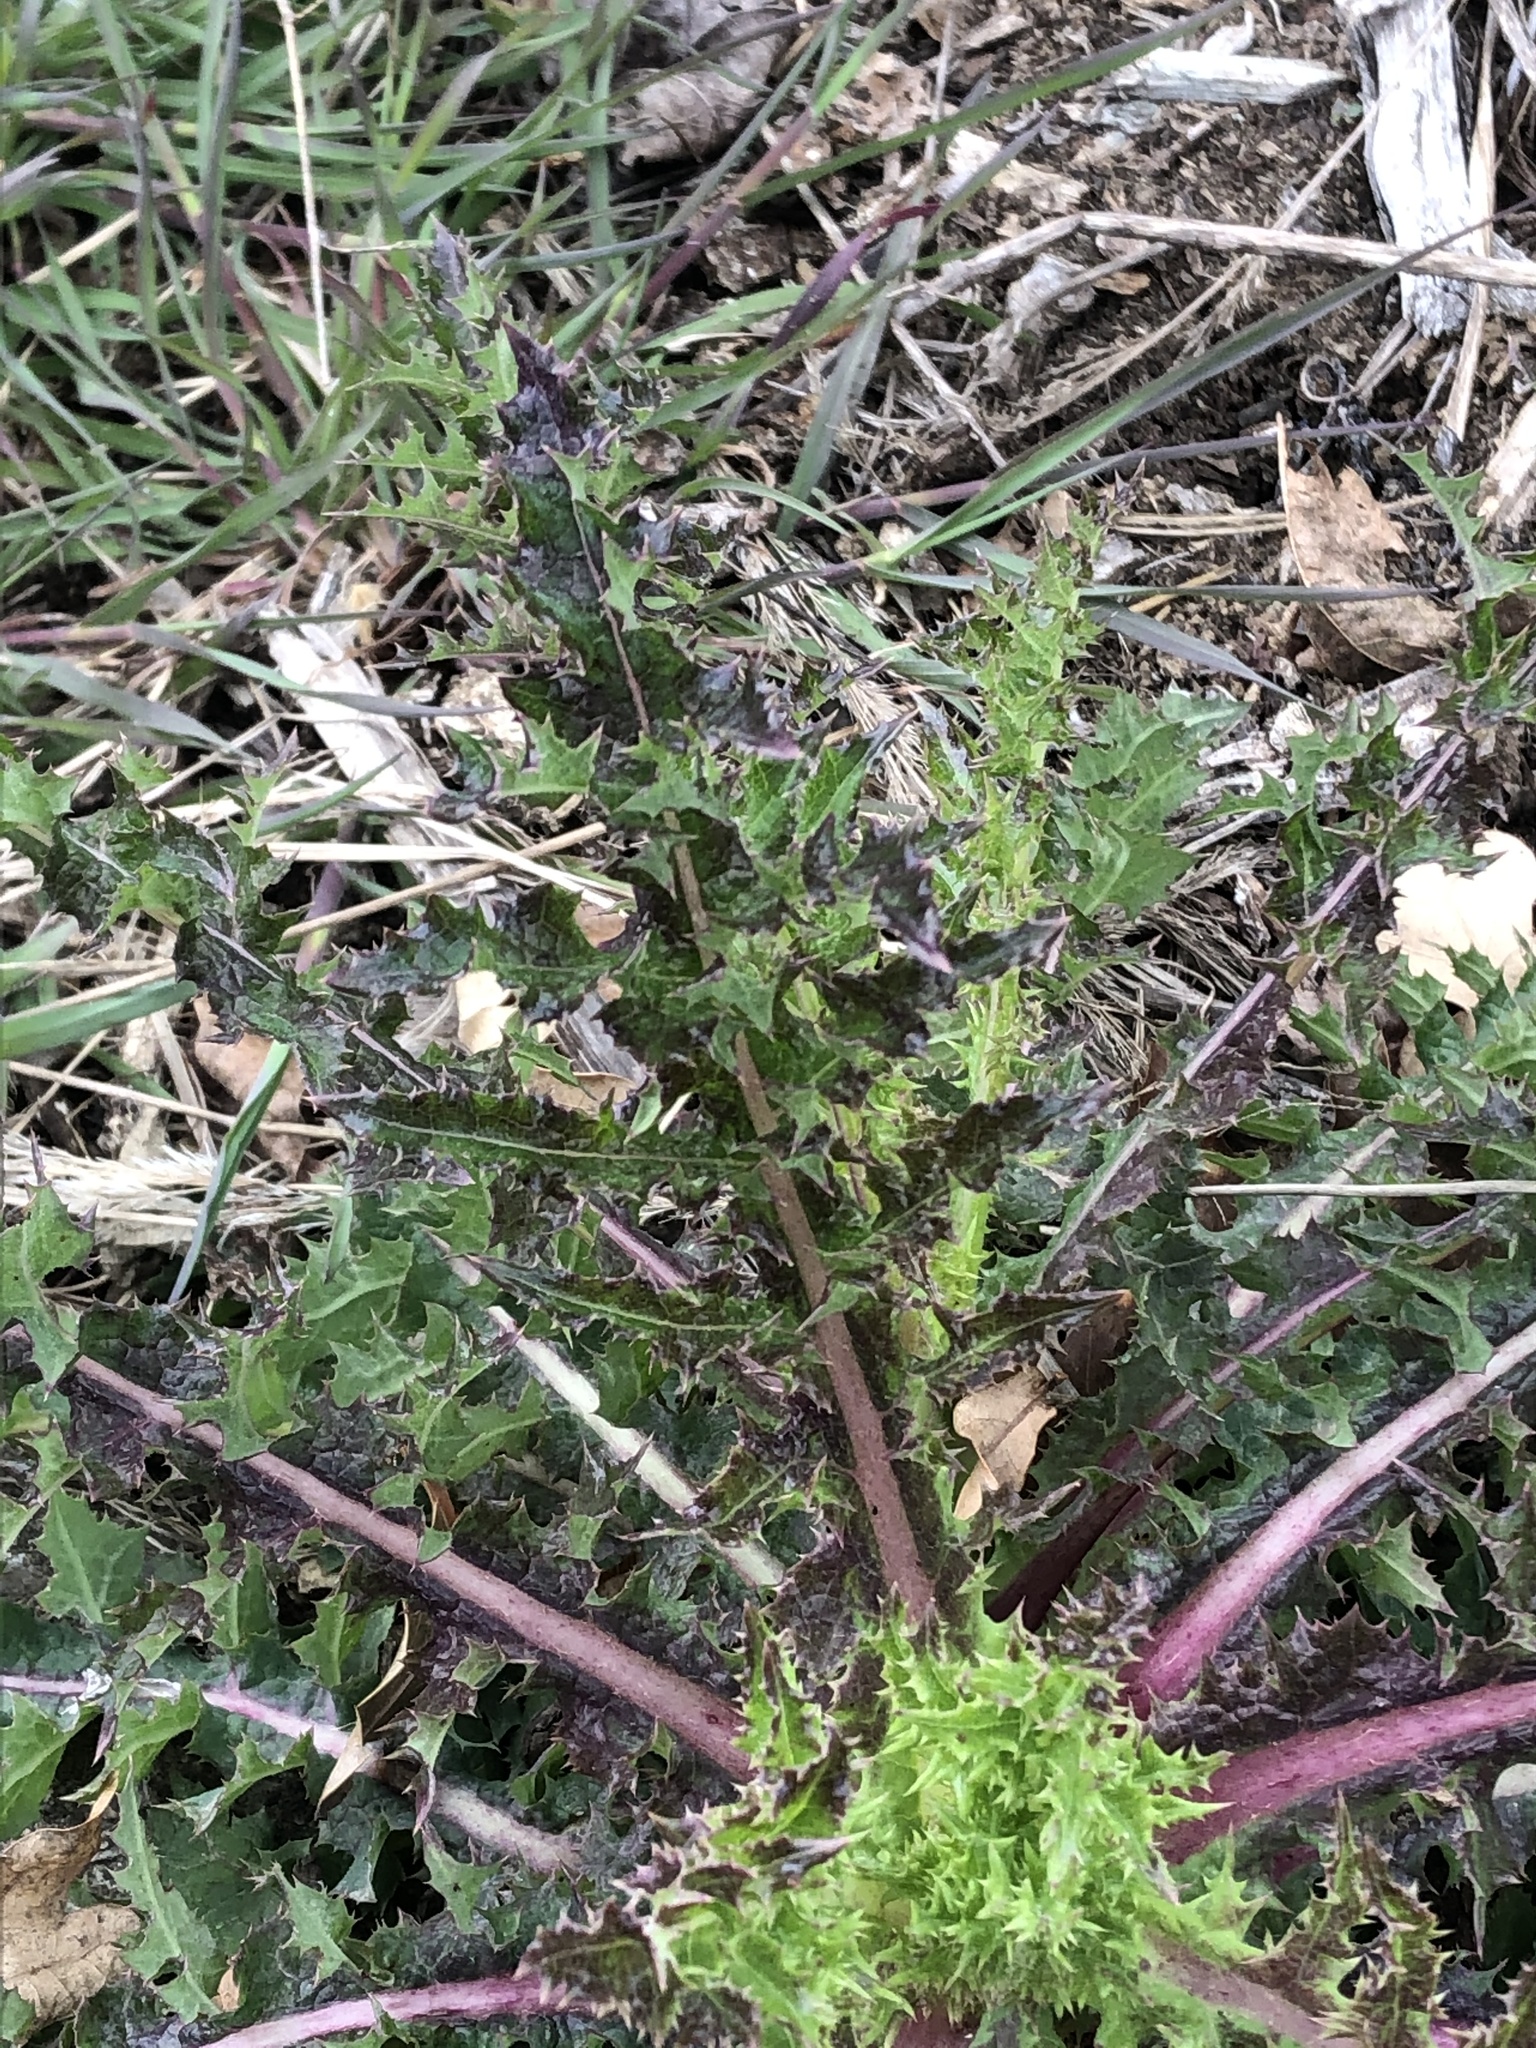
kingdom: Plantae
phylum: Tracheophyta
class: Magnoliopsida
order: Asterales
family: Asteraceae
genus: Sonchus
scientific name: Sonchus asper
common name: Prickly sow-thistle
